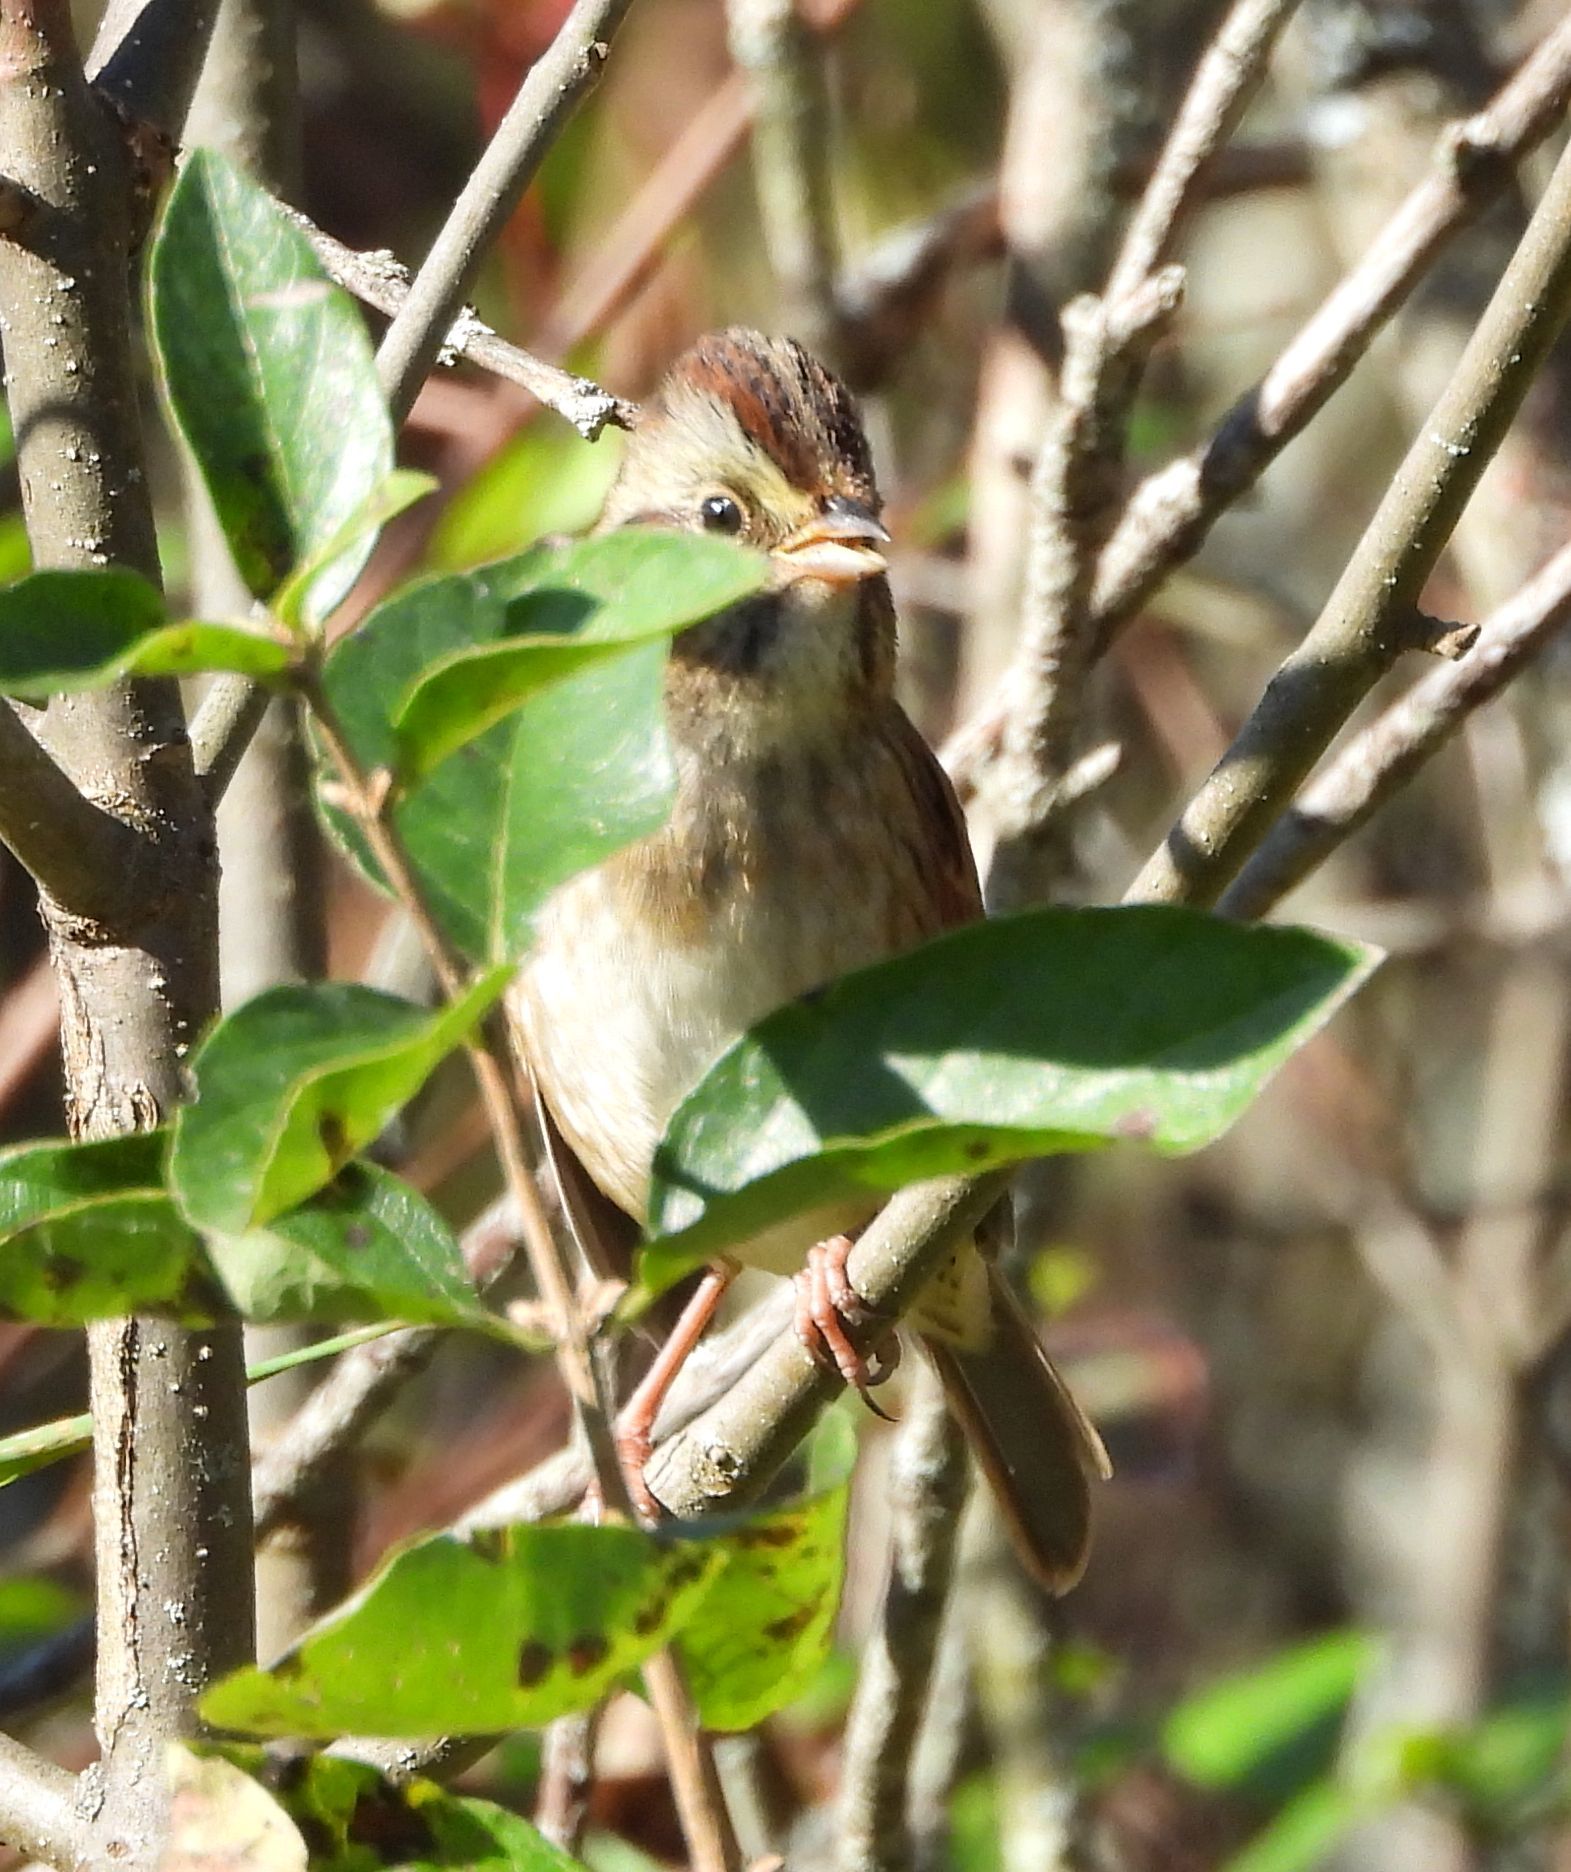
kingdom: Animalia
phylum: Chordata
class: Aves
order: Passeriformes
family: Passerellidae
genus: Melospiza
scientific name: Melospiza georgiana
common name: Swamp sparrow
